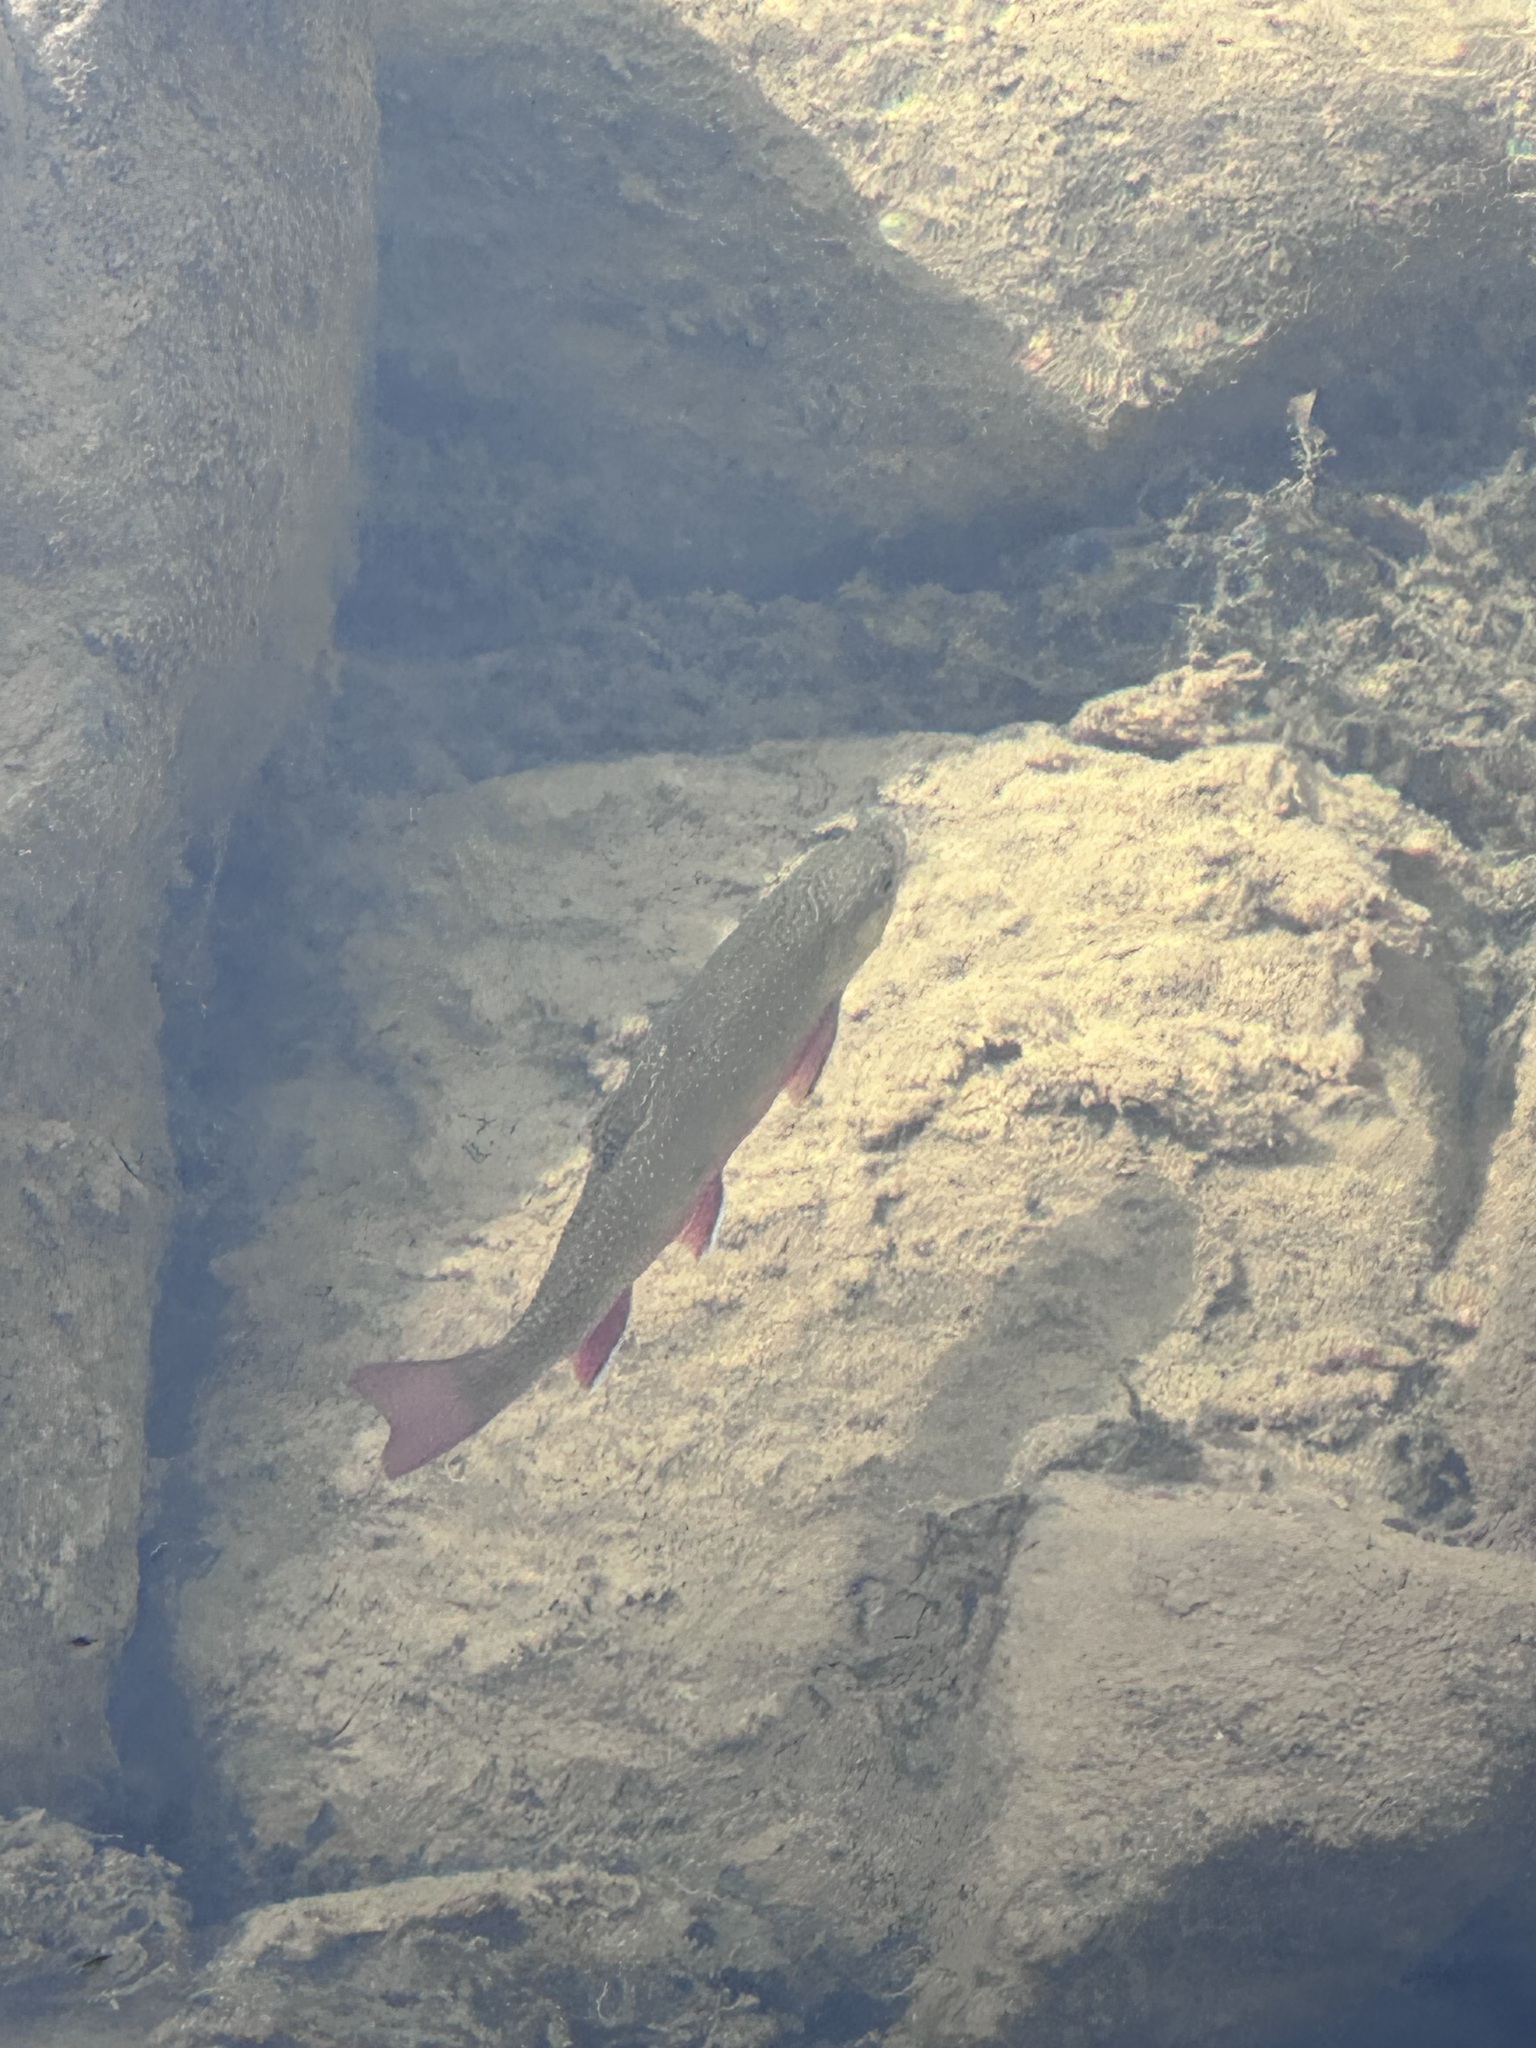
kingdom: Animalia
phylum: Chordata
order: Salmoniformes
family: Salmonidae
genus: Salvelinus
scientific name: Salvelinus fontinalis
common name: Brook trout
